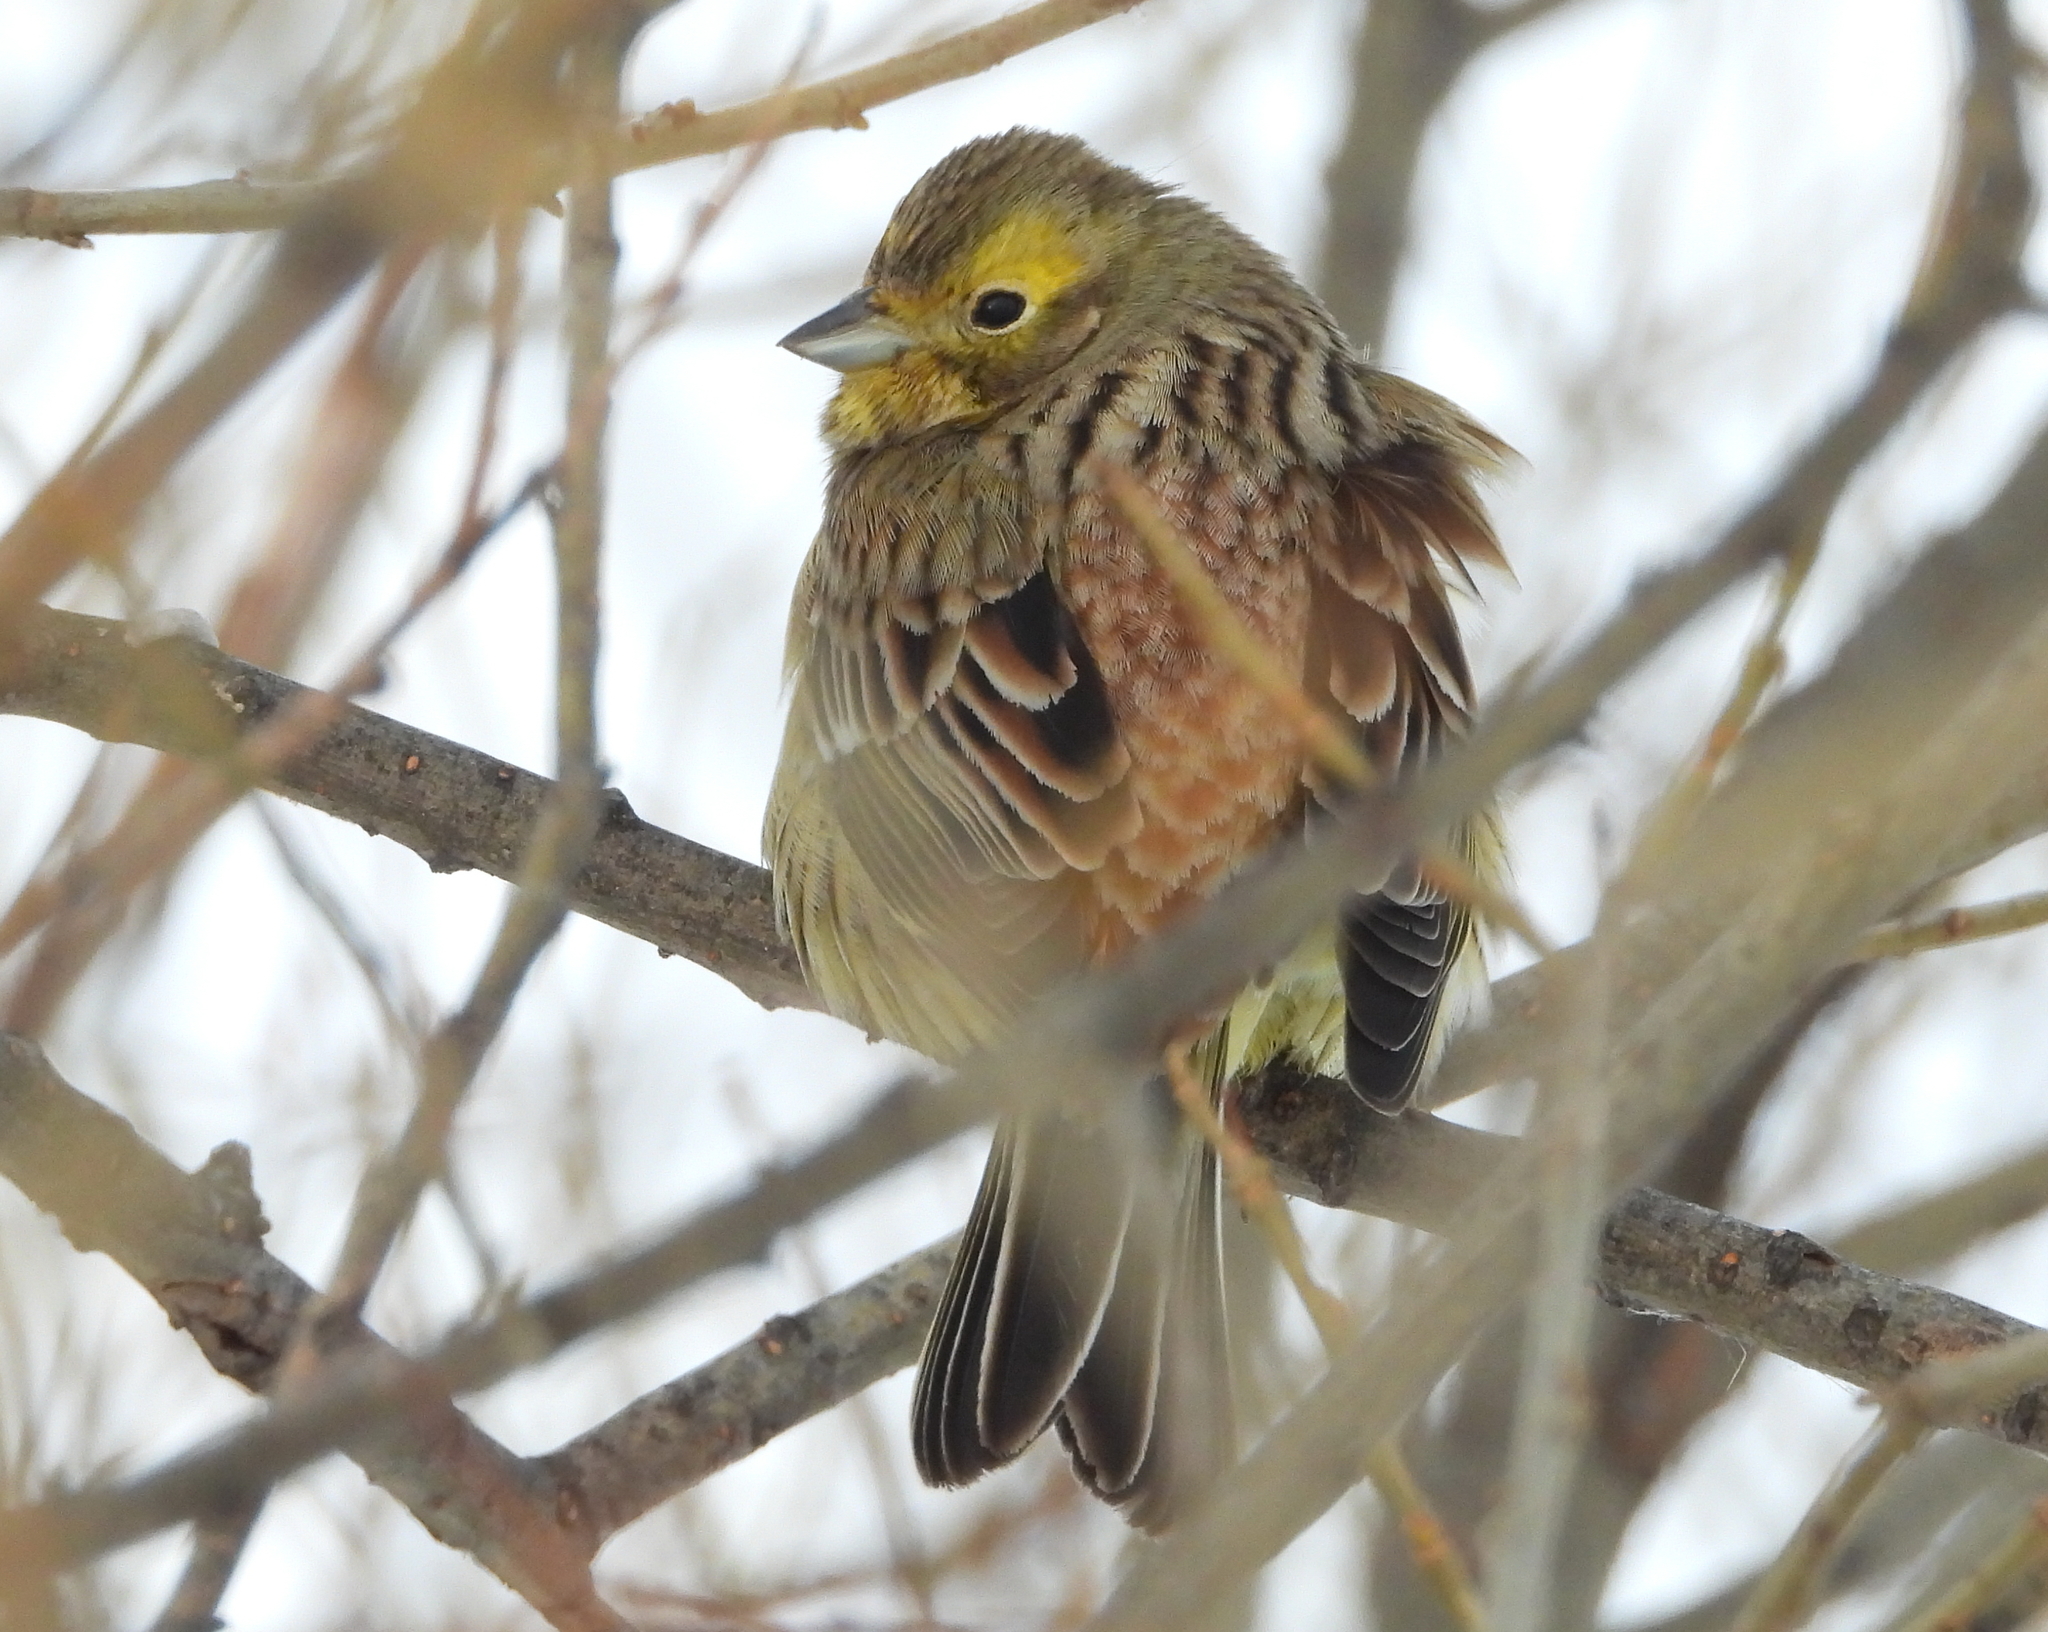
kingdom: Animalia
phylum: Chordata
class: Aves
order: Passeriformes
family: Emberizidae
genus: Emberiza
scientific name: Emberiza citrinella
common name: Yellowhammer
